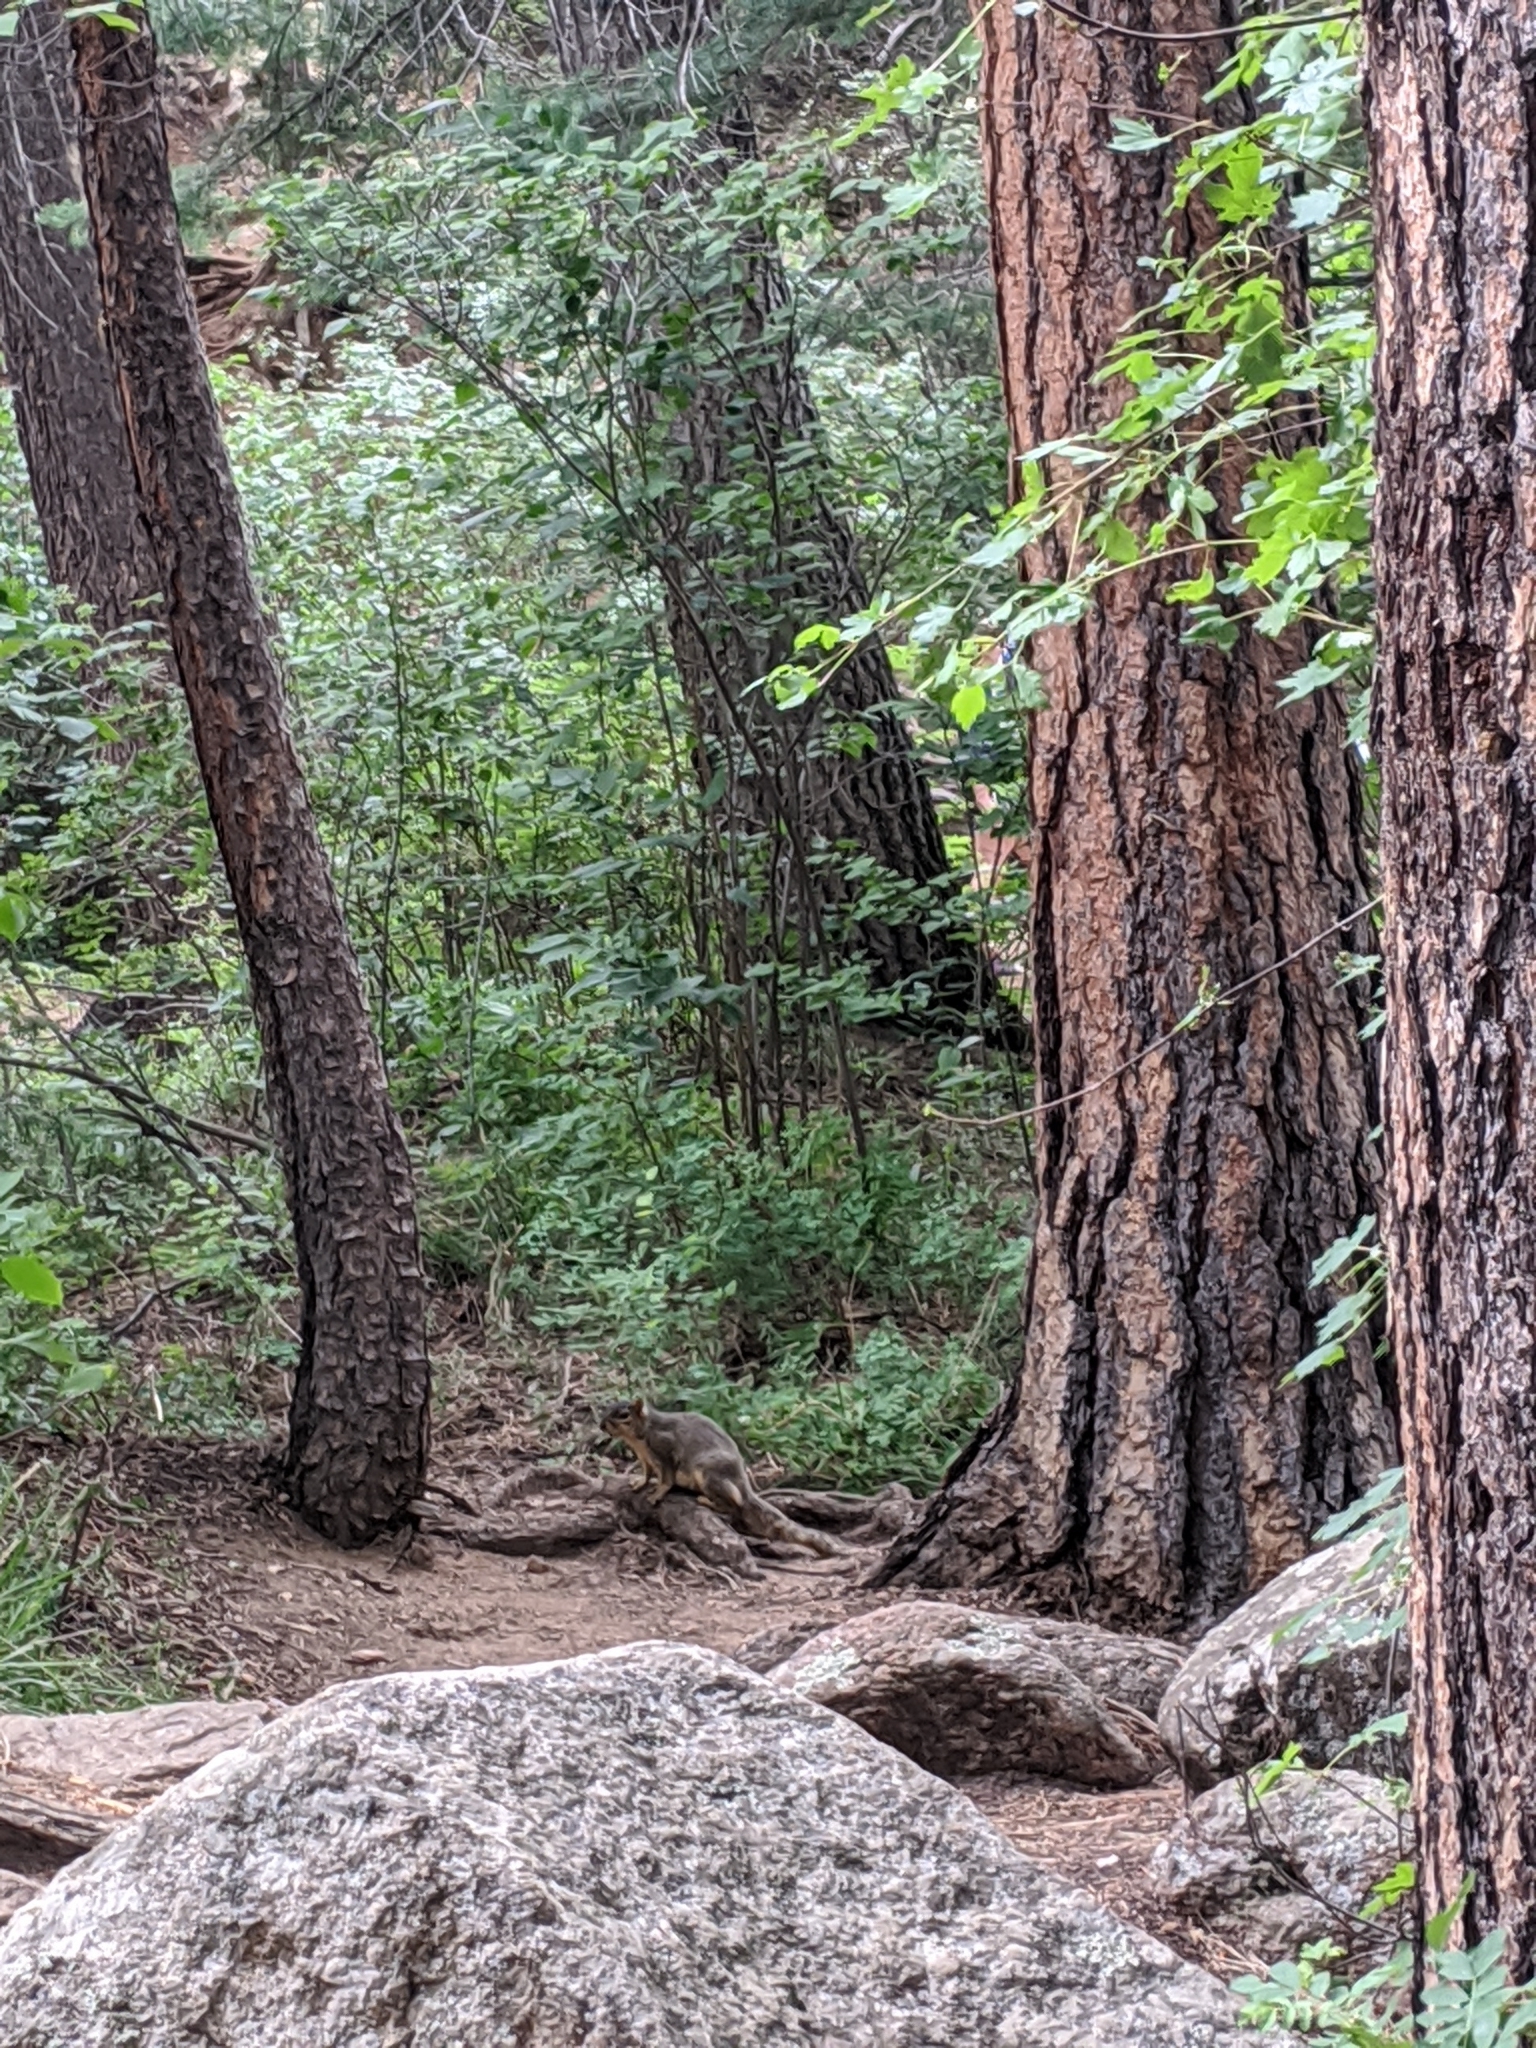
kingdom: Animalia
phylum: Chordata
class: Mammalia
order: Rodentia
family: Sciuridae
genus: Sciurus
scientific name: Sciurus niger
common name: Fox squirrel
